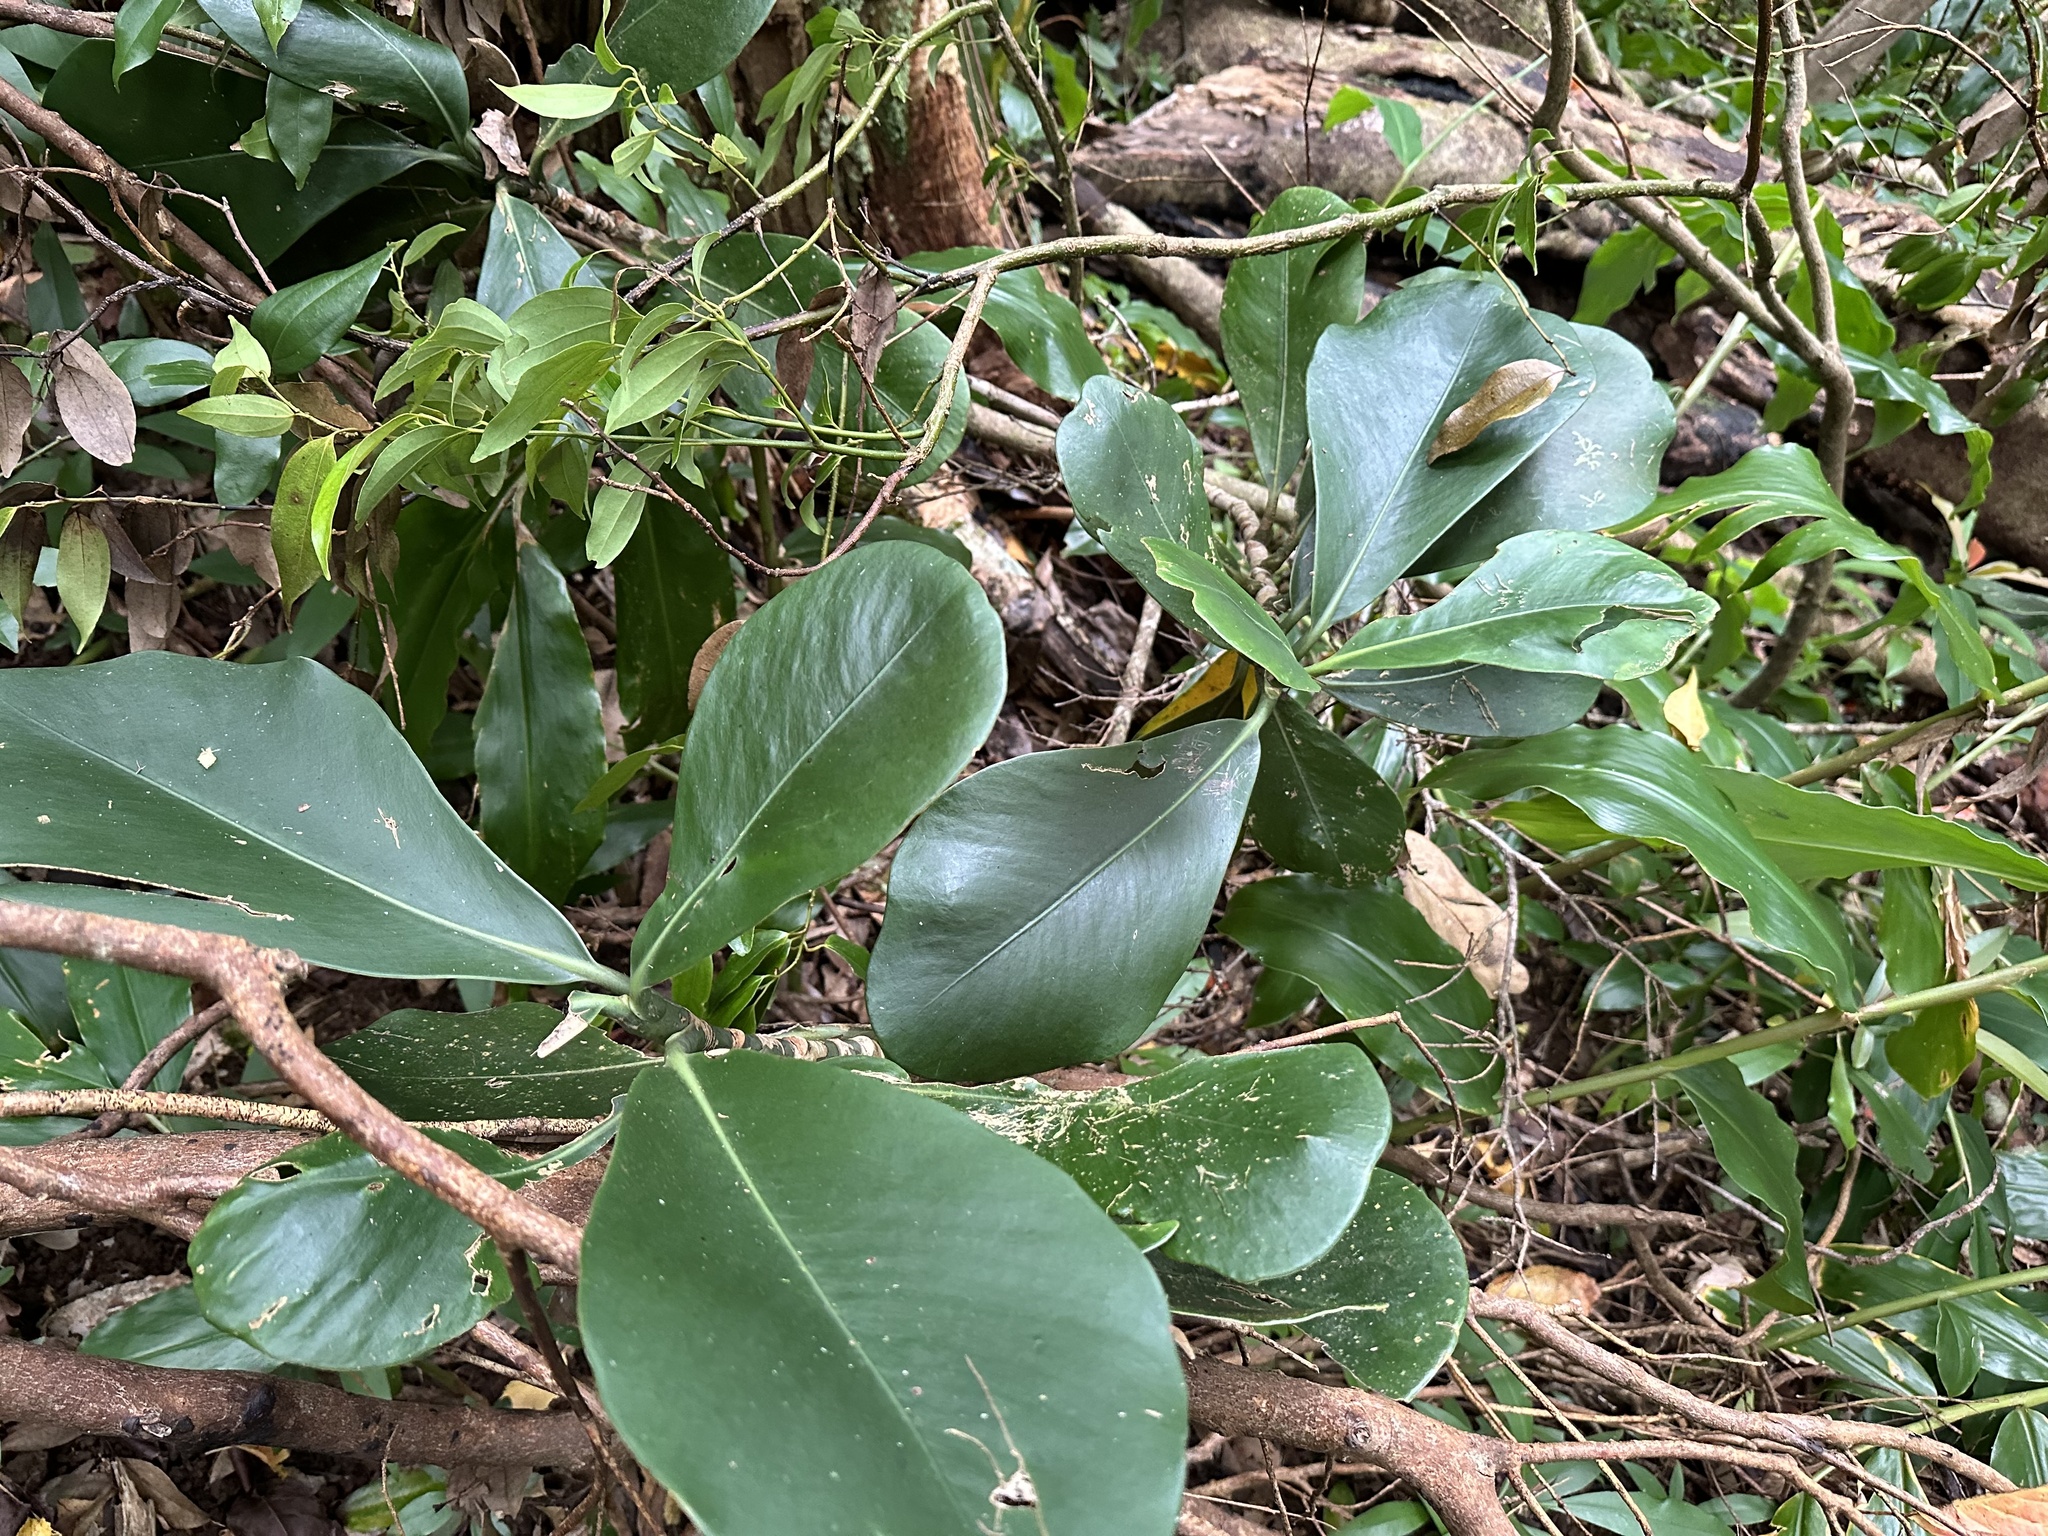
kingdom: Plantae
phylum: Tracheophyta
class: Magnoliopsida
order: Malpighiales
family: Clusiaceae
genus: Clusia
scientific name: Clusia rosea
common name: Scotch attorney
